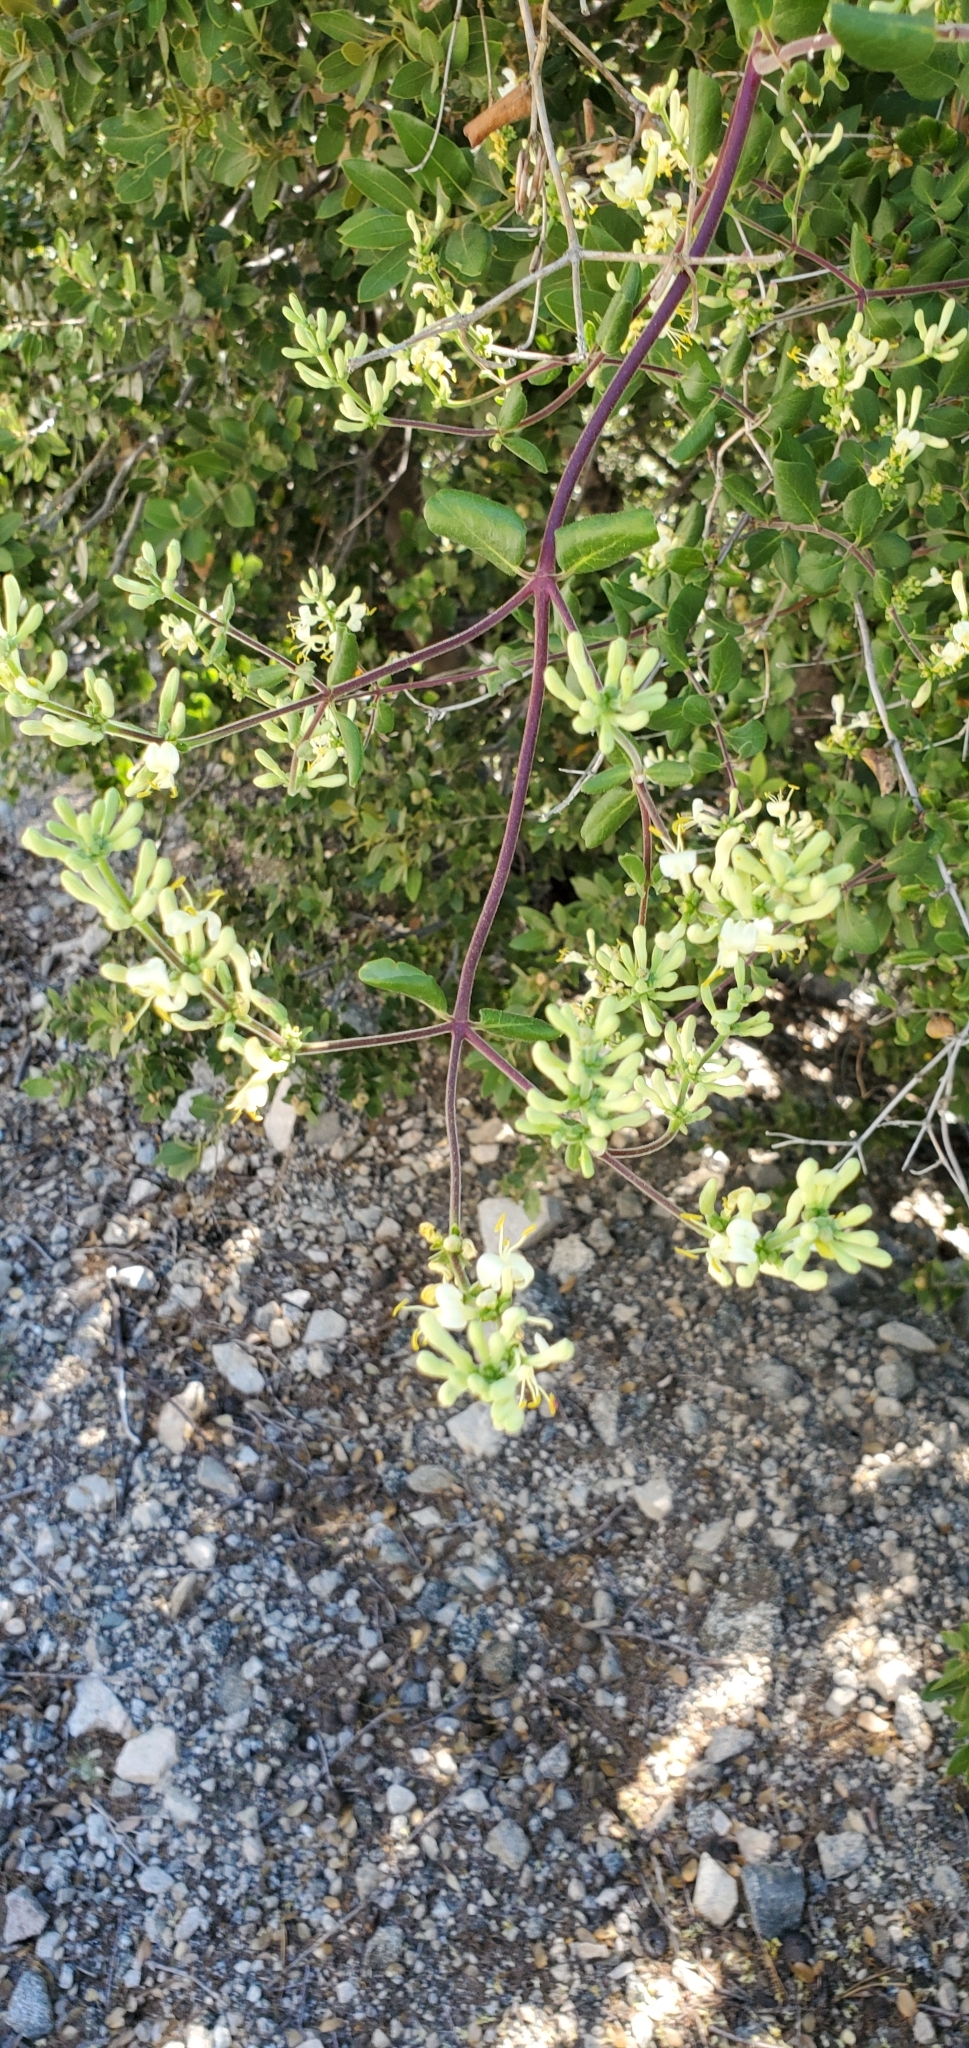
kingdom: Plantae
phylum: Tracheophyta
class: Magnoliopsida
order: Dipsacales
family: Caprifoliaceae
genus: Lonicera
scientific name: Lonicera subspicata
